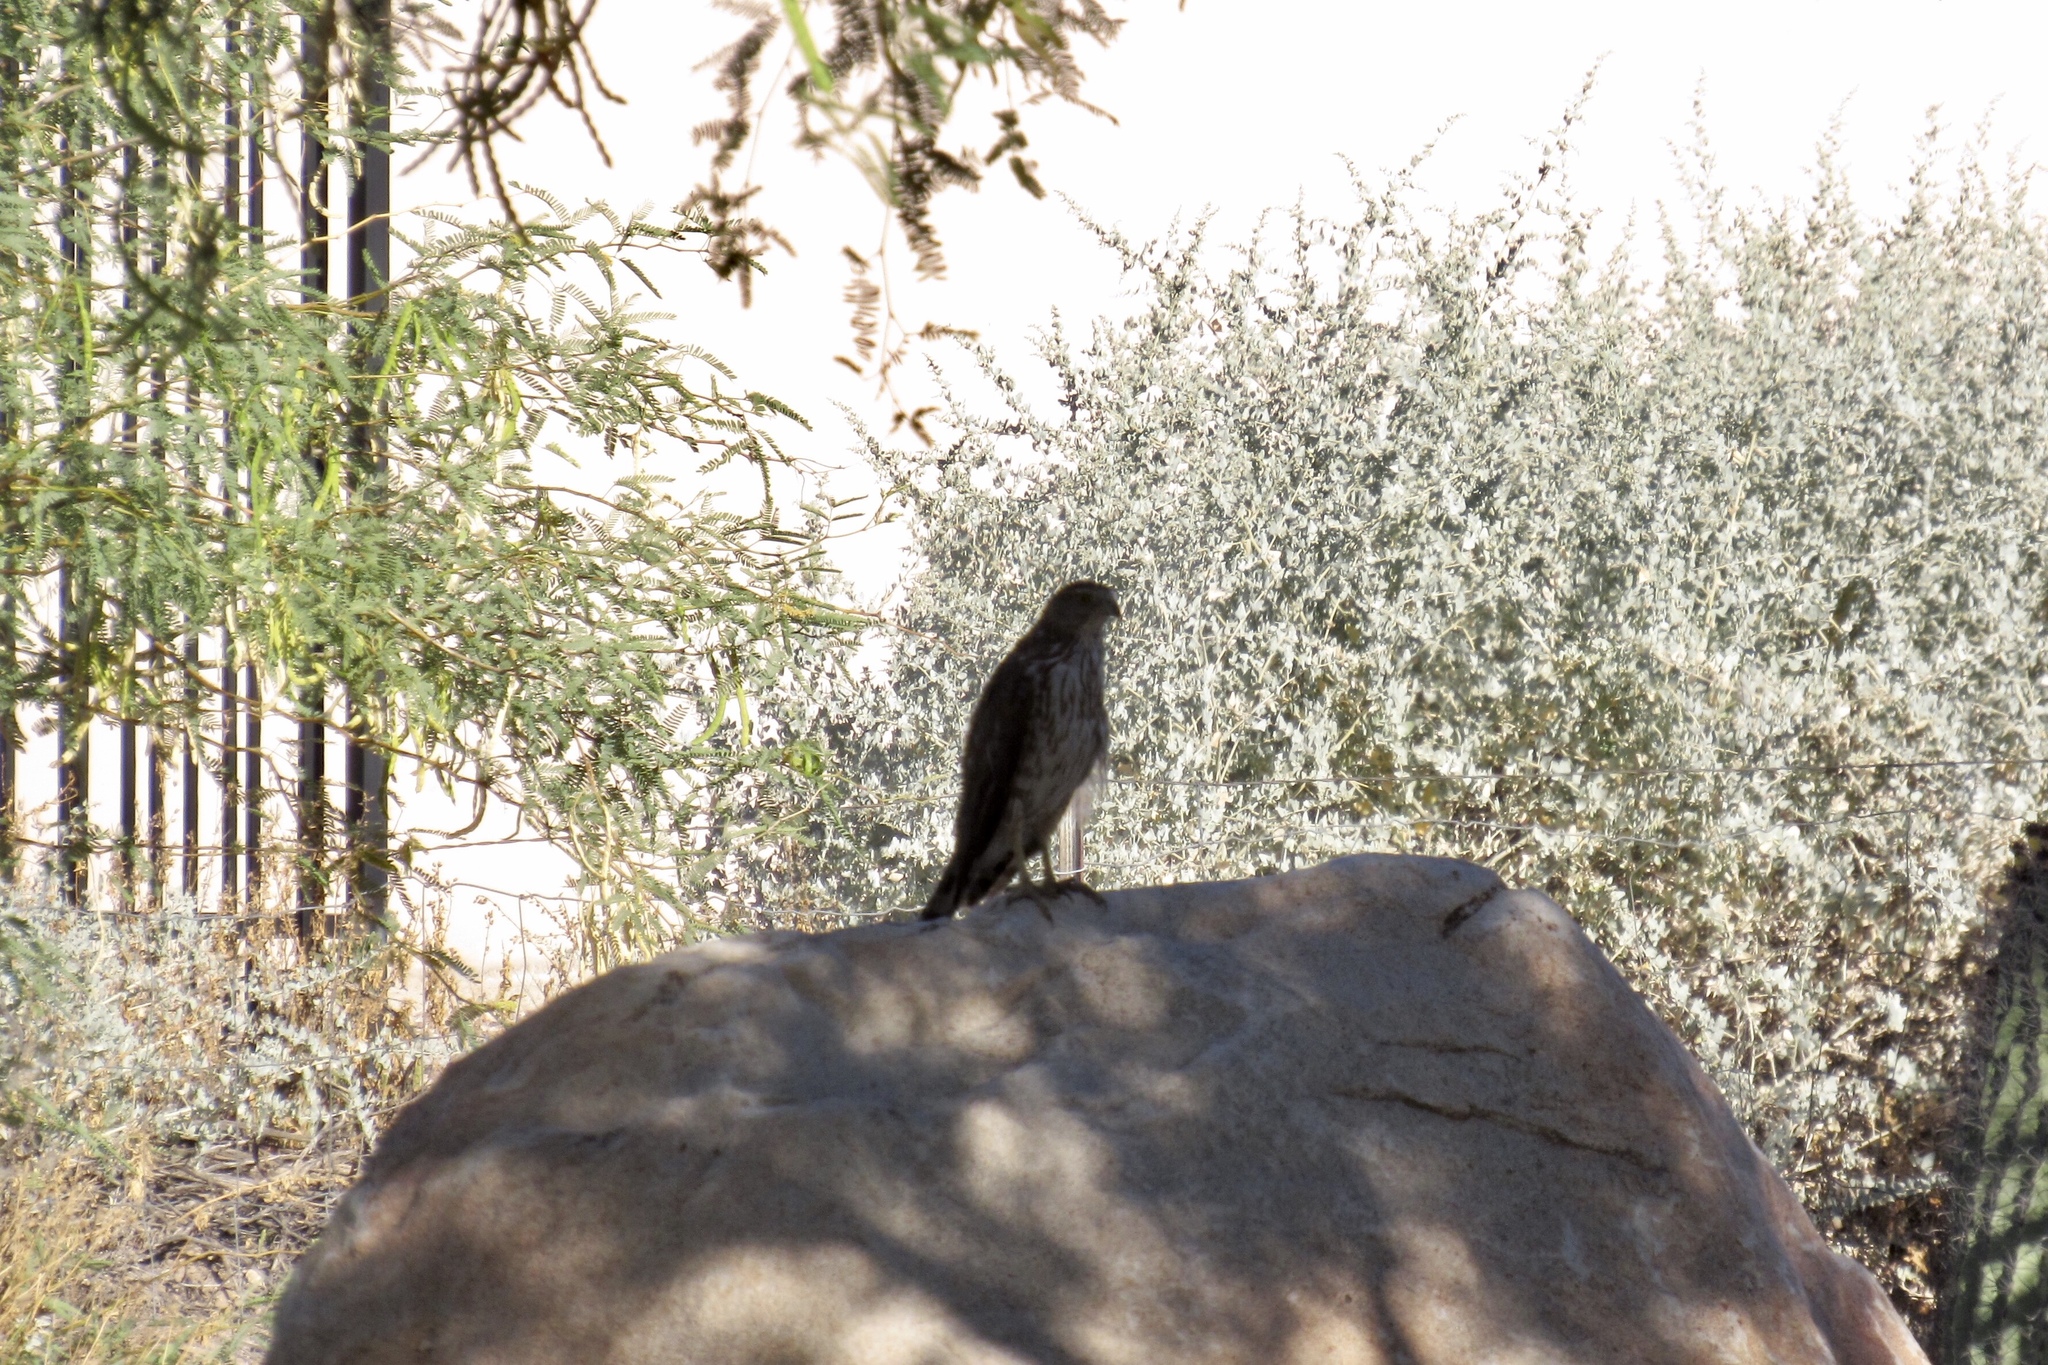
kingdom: Animalia
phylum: Chordata
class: Aves
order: Accipitriformes
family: Accipitridae
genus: Accipiter
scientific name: Accipiter cooperii
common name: Cooper's hawk
